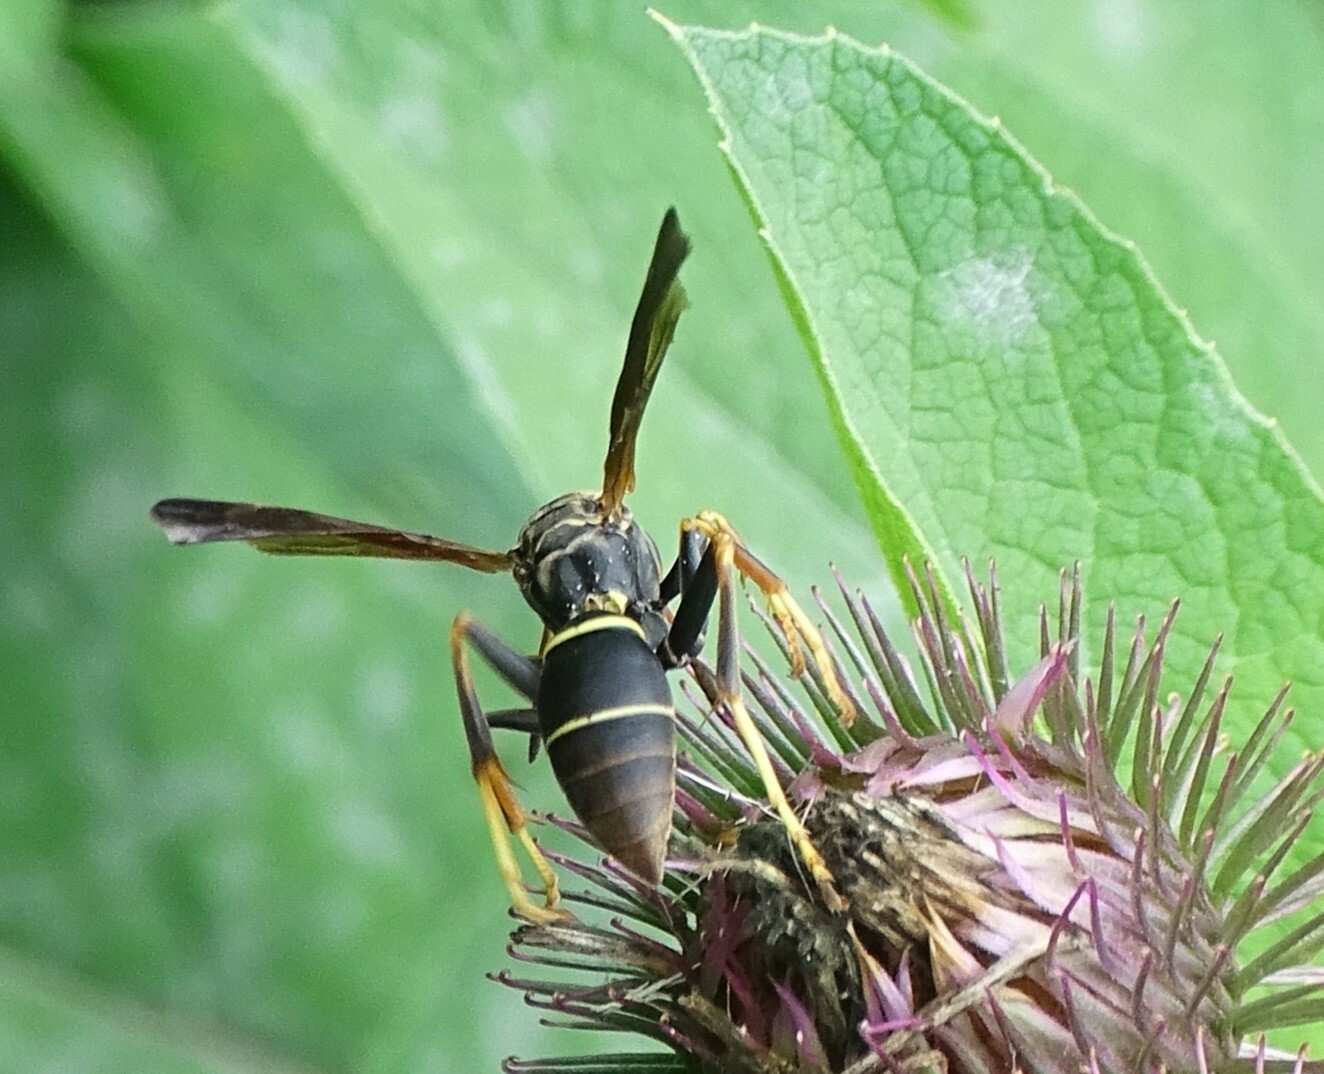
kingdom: Animalia
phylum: Arthropoda
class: Insecta
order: Hymenoptera
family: Eumenidae
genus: Polistes
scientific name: Polistes fuscatus
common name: Dark paper wasp
